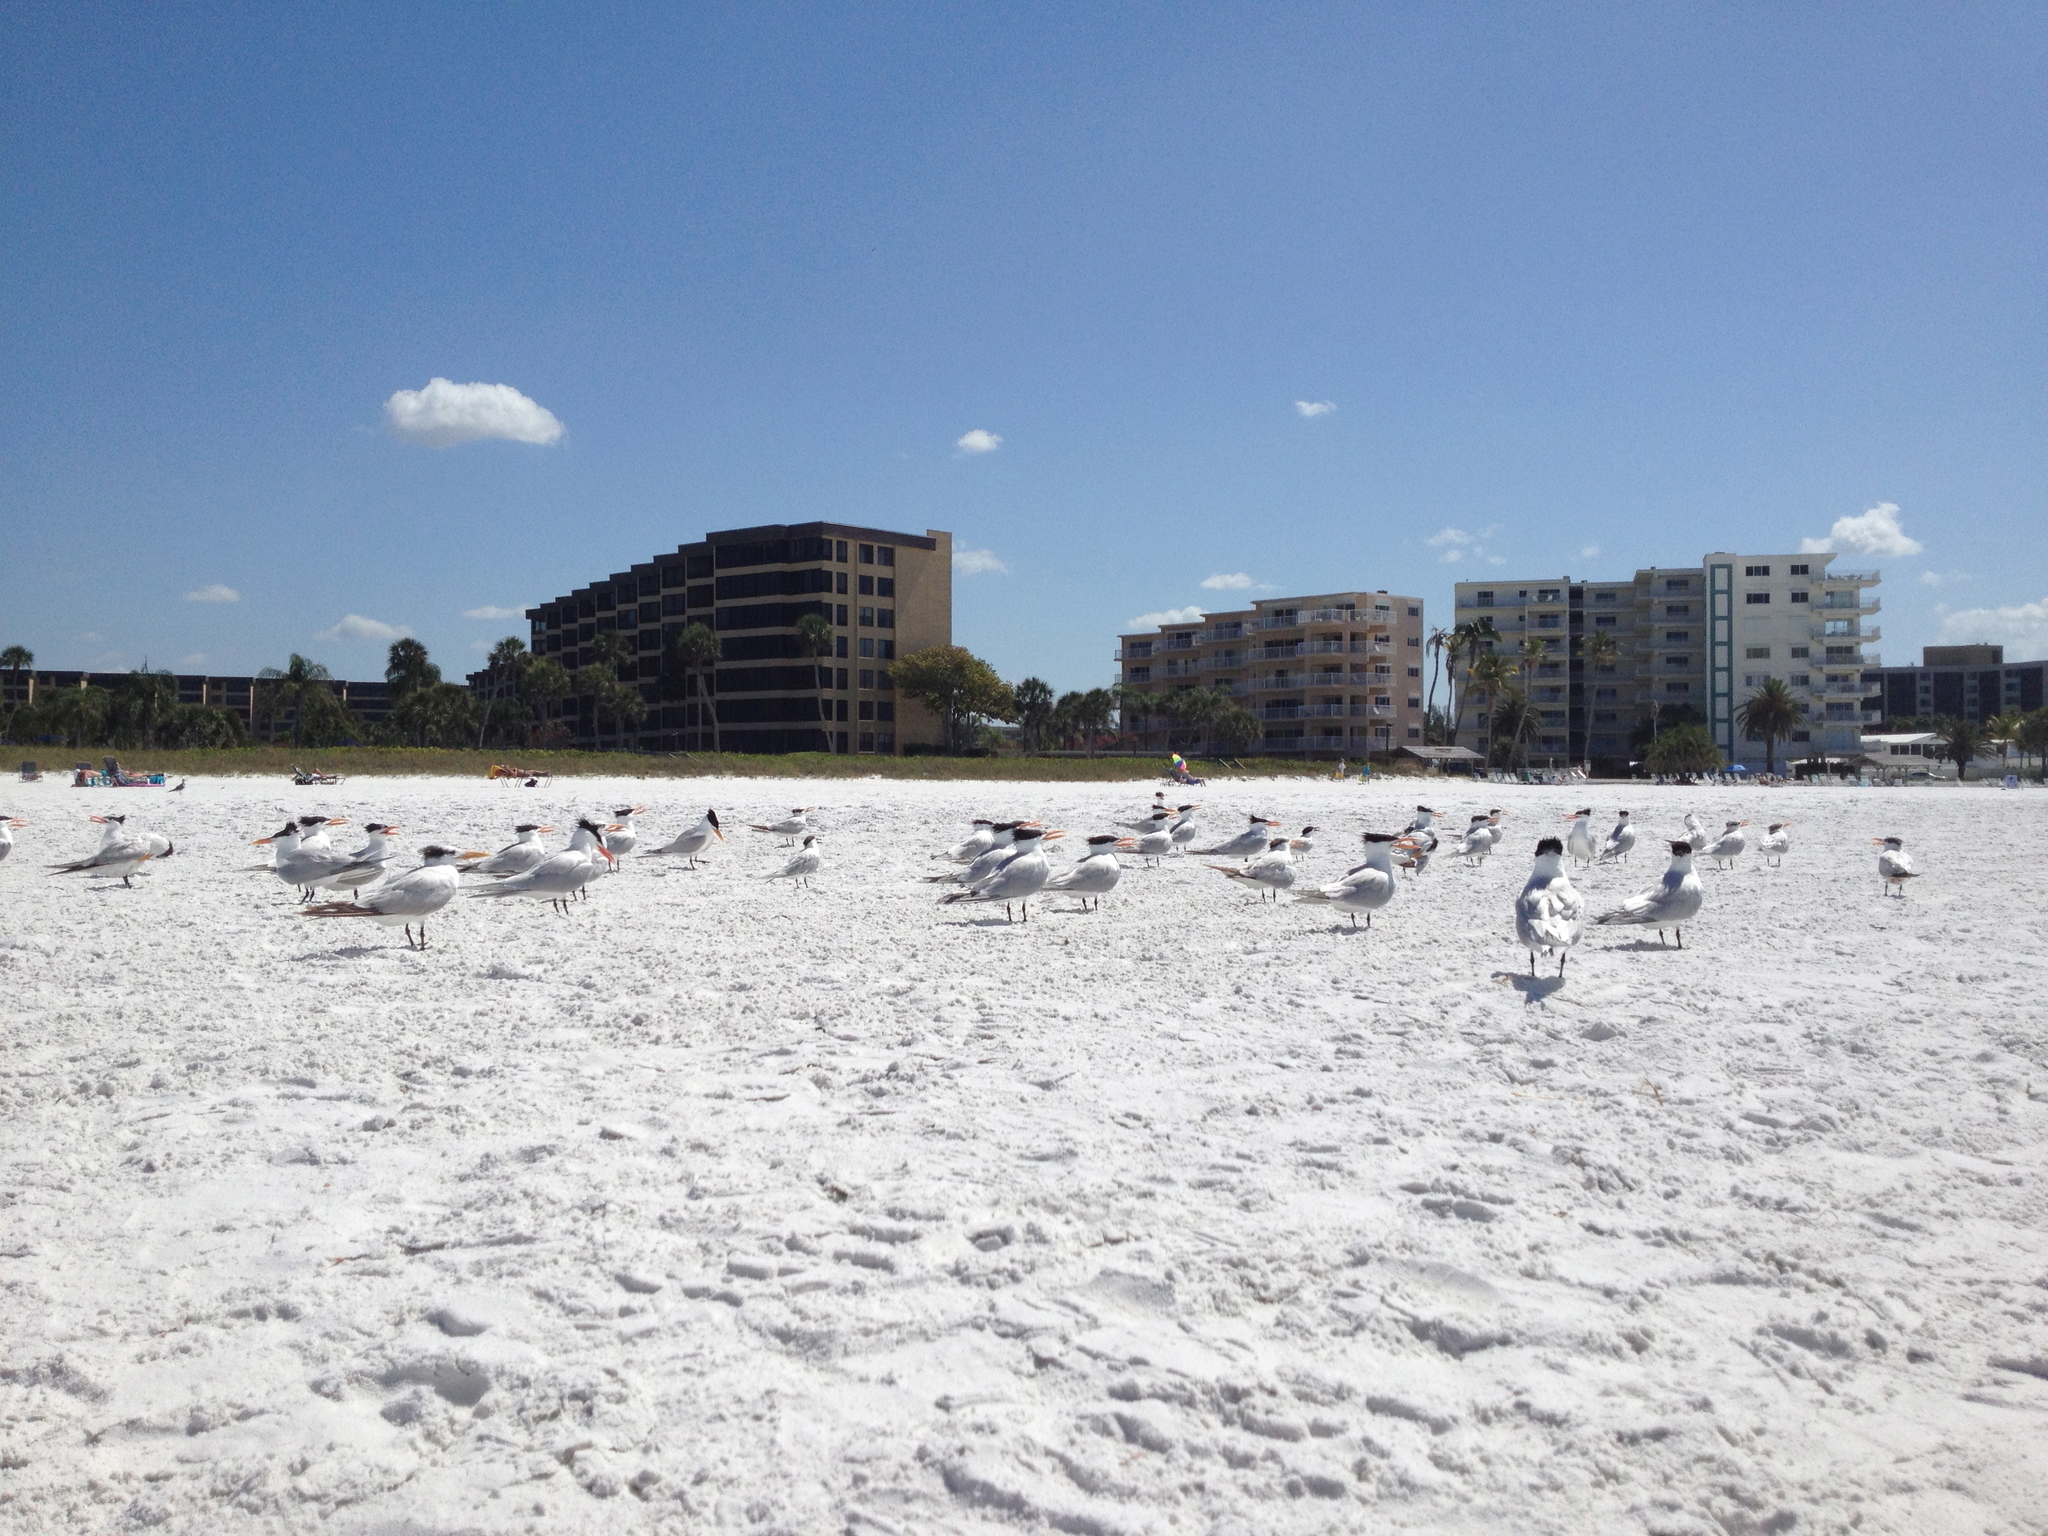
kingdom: Animalia
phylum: Chordata
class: Aves
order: Charadriiformes
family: Laridae
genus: Thalasseus
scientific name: Thalasseus maximus
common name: Royal tern
